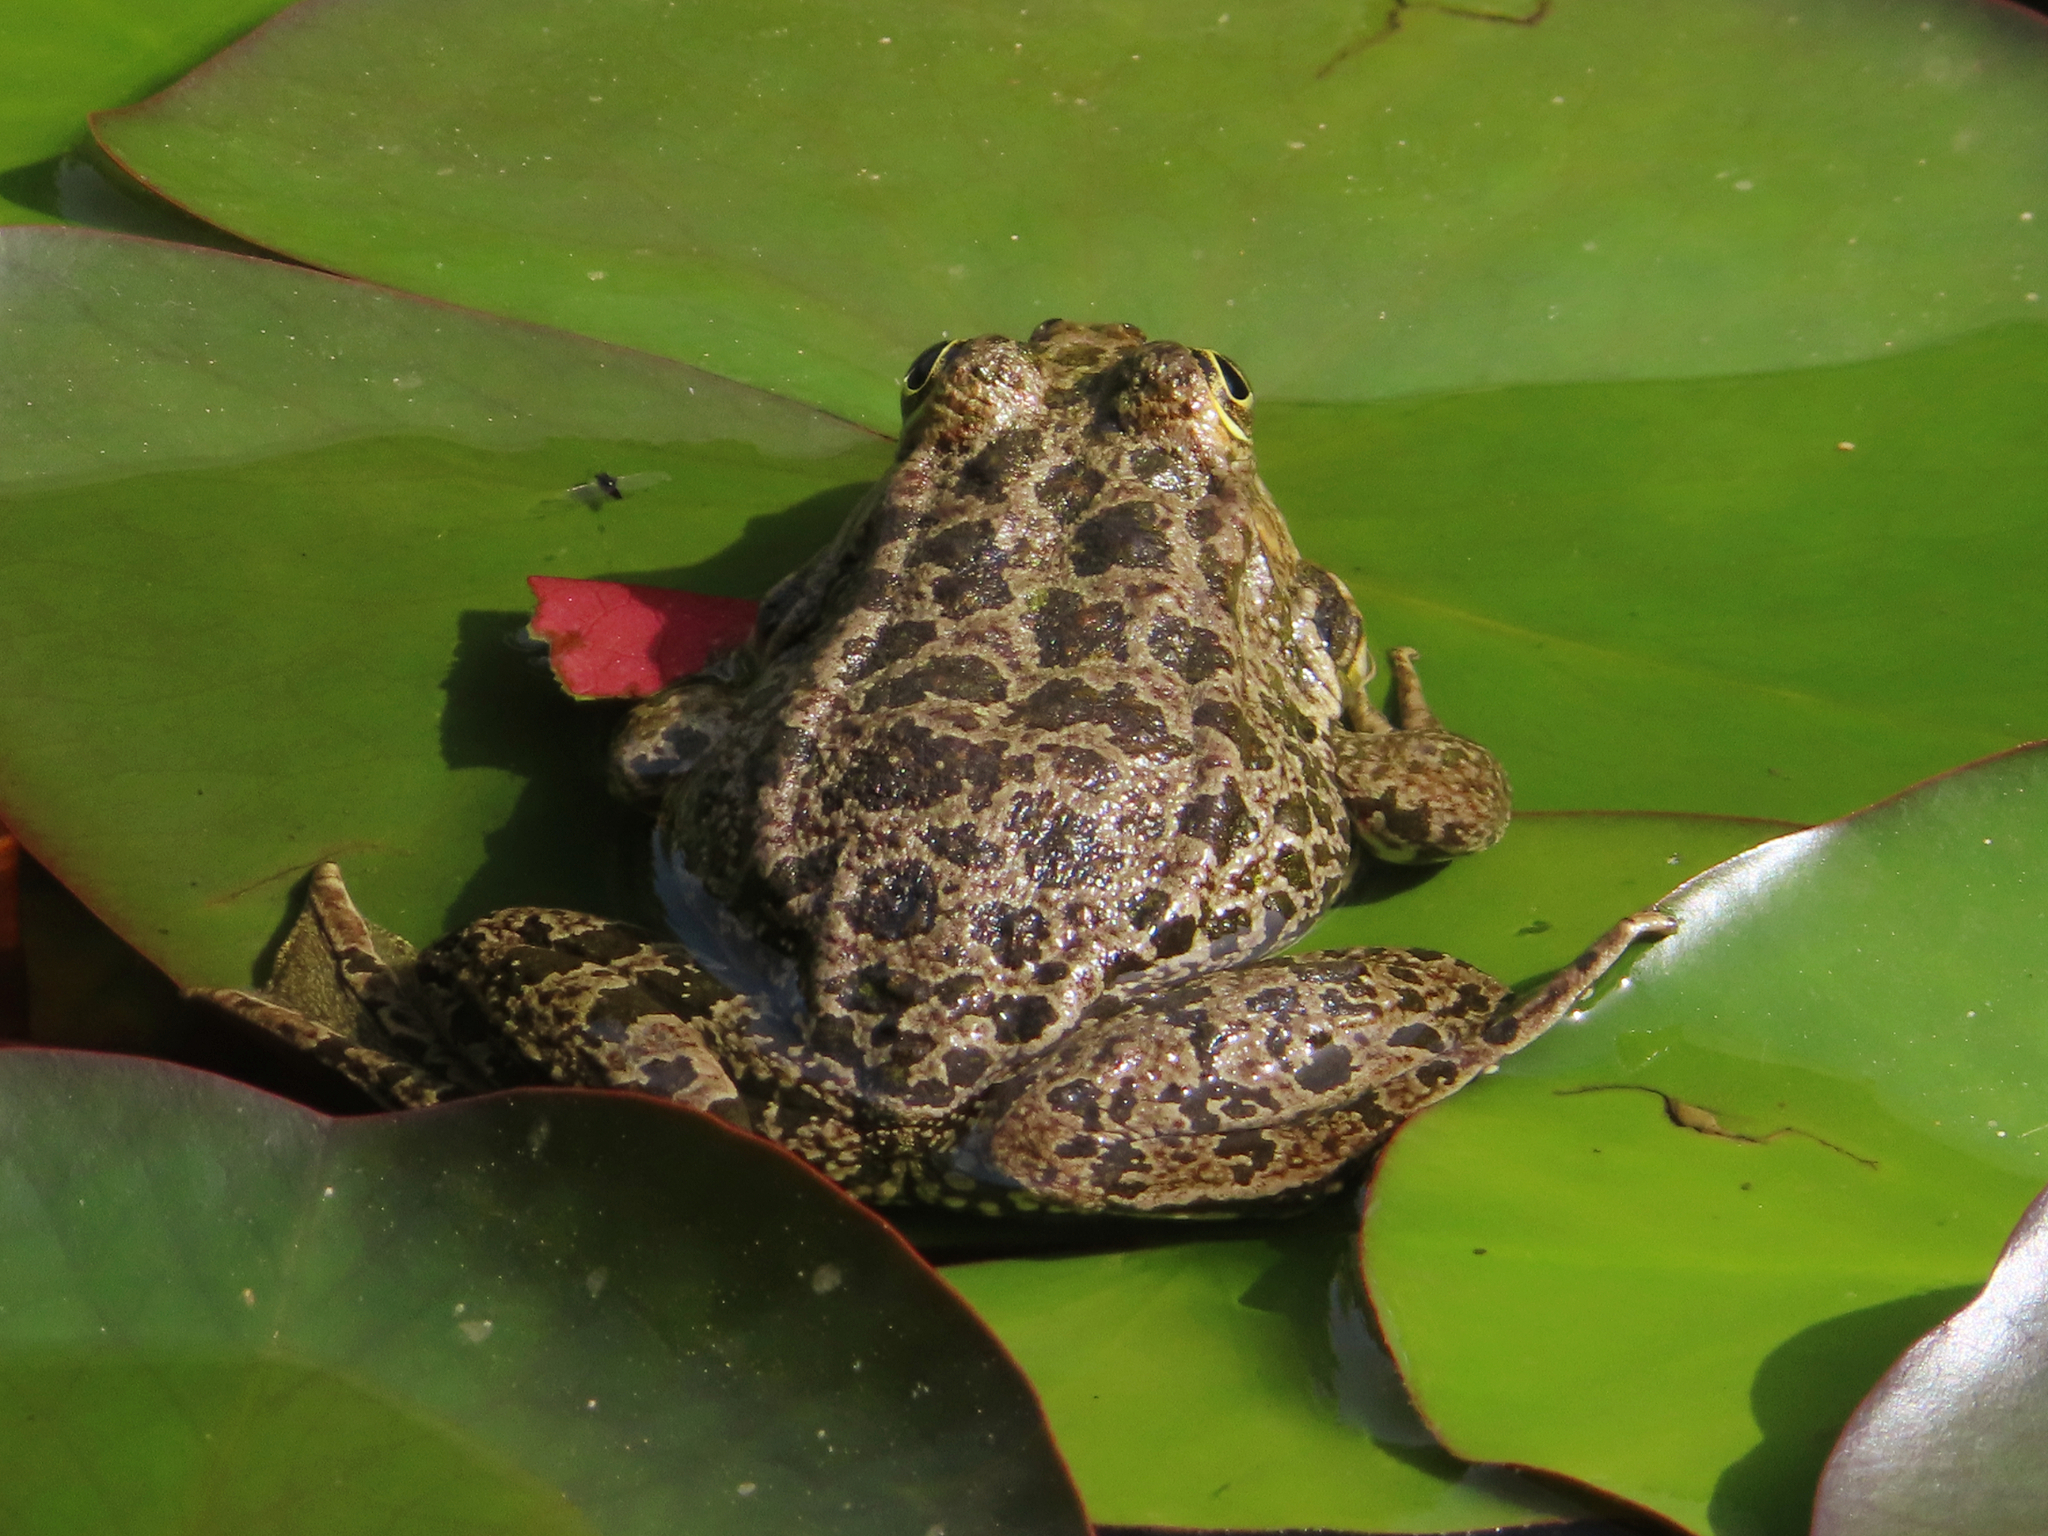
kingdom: Animalia
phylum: Chordata
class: Amphibia
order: Anura
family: Ranidae
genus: Pelophylax
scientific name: Pelophylax ridibundus
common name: Marsh frog
